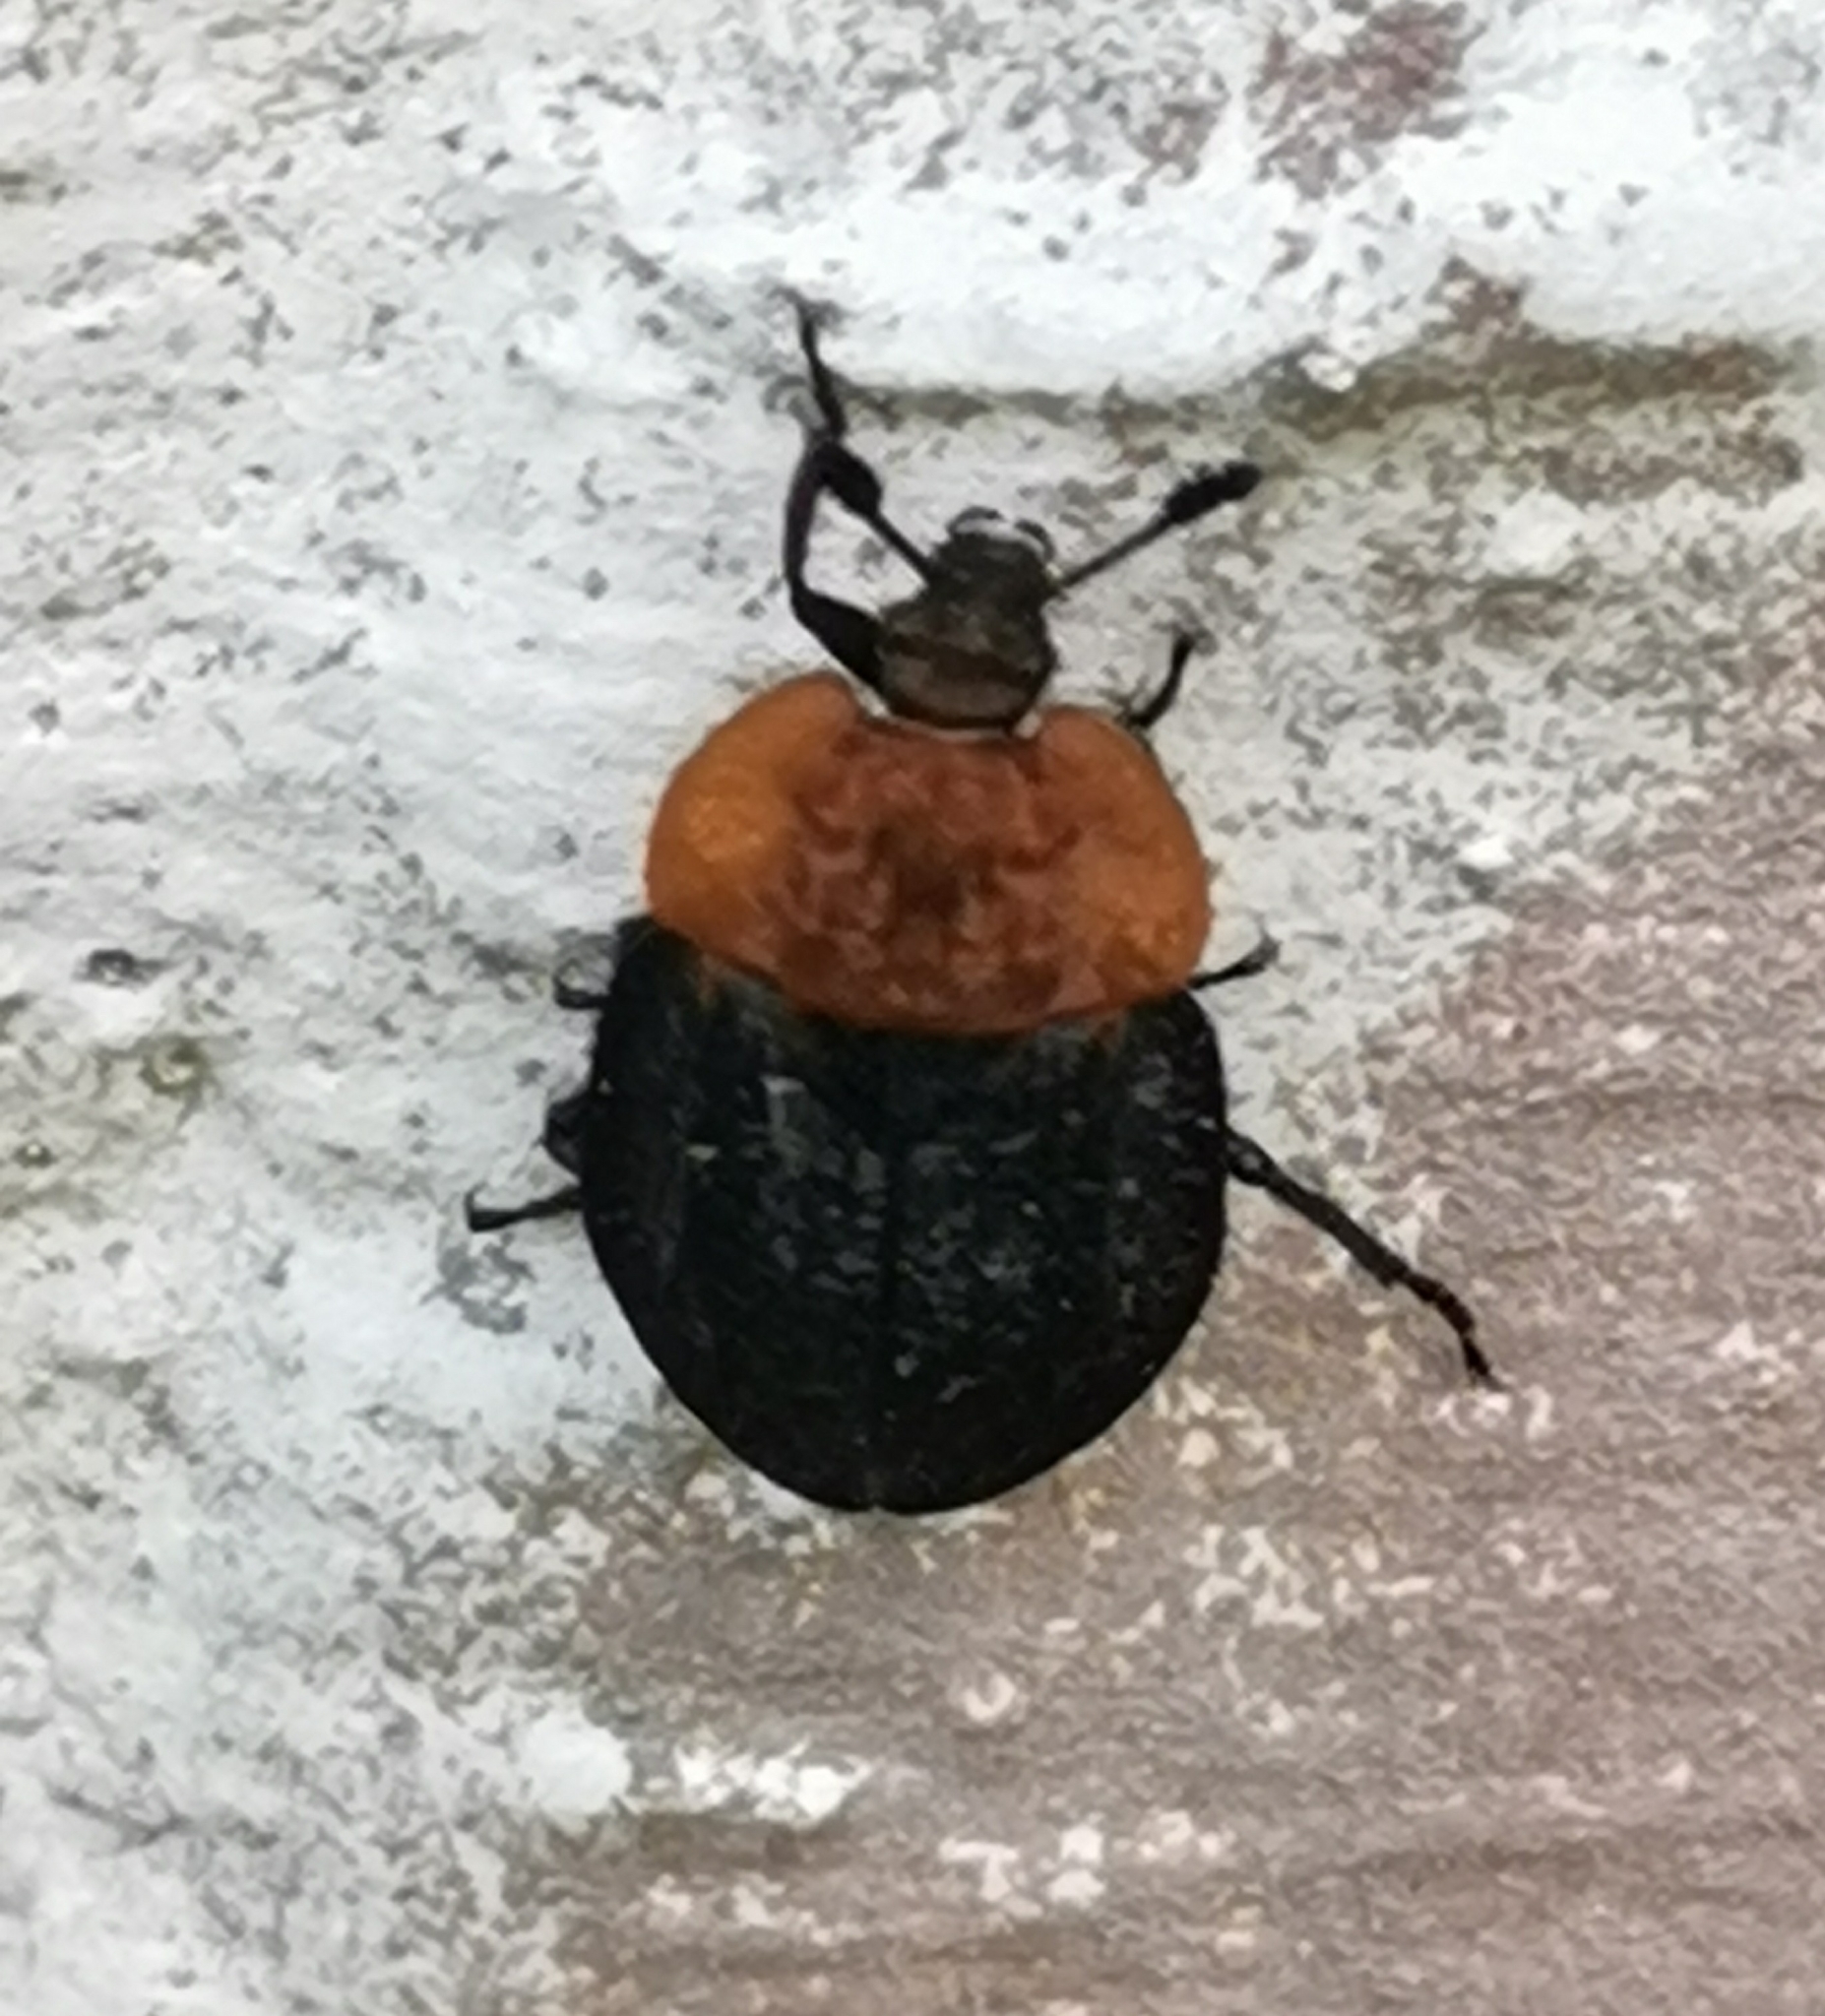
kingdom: Animalia
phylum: Arthropoda
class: Insecta
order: Coleoptera
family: Staphylinidae
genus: Oiceoptoma
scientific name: Oiceoptoma thoracicum
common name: Red-breasted carrion beetle
